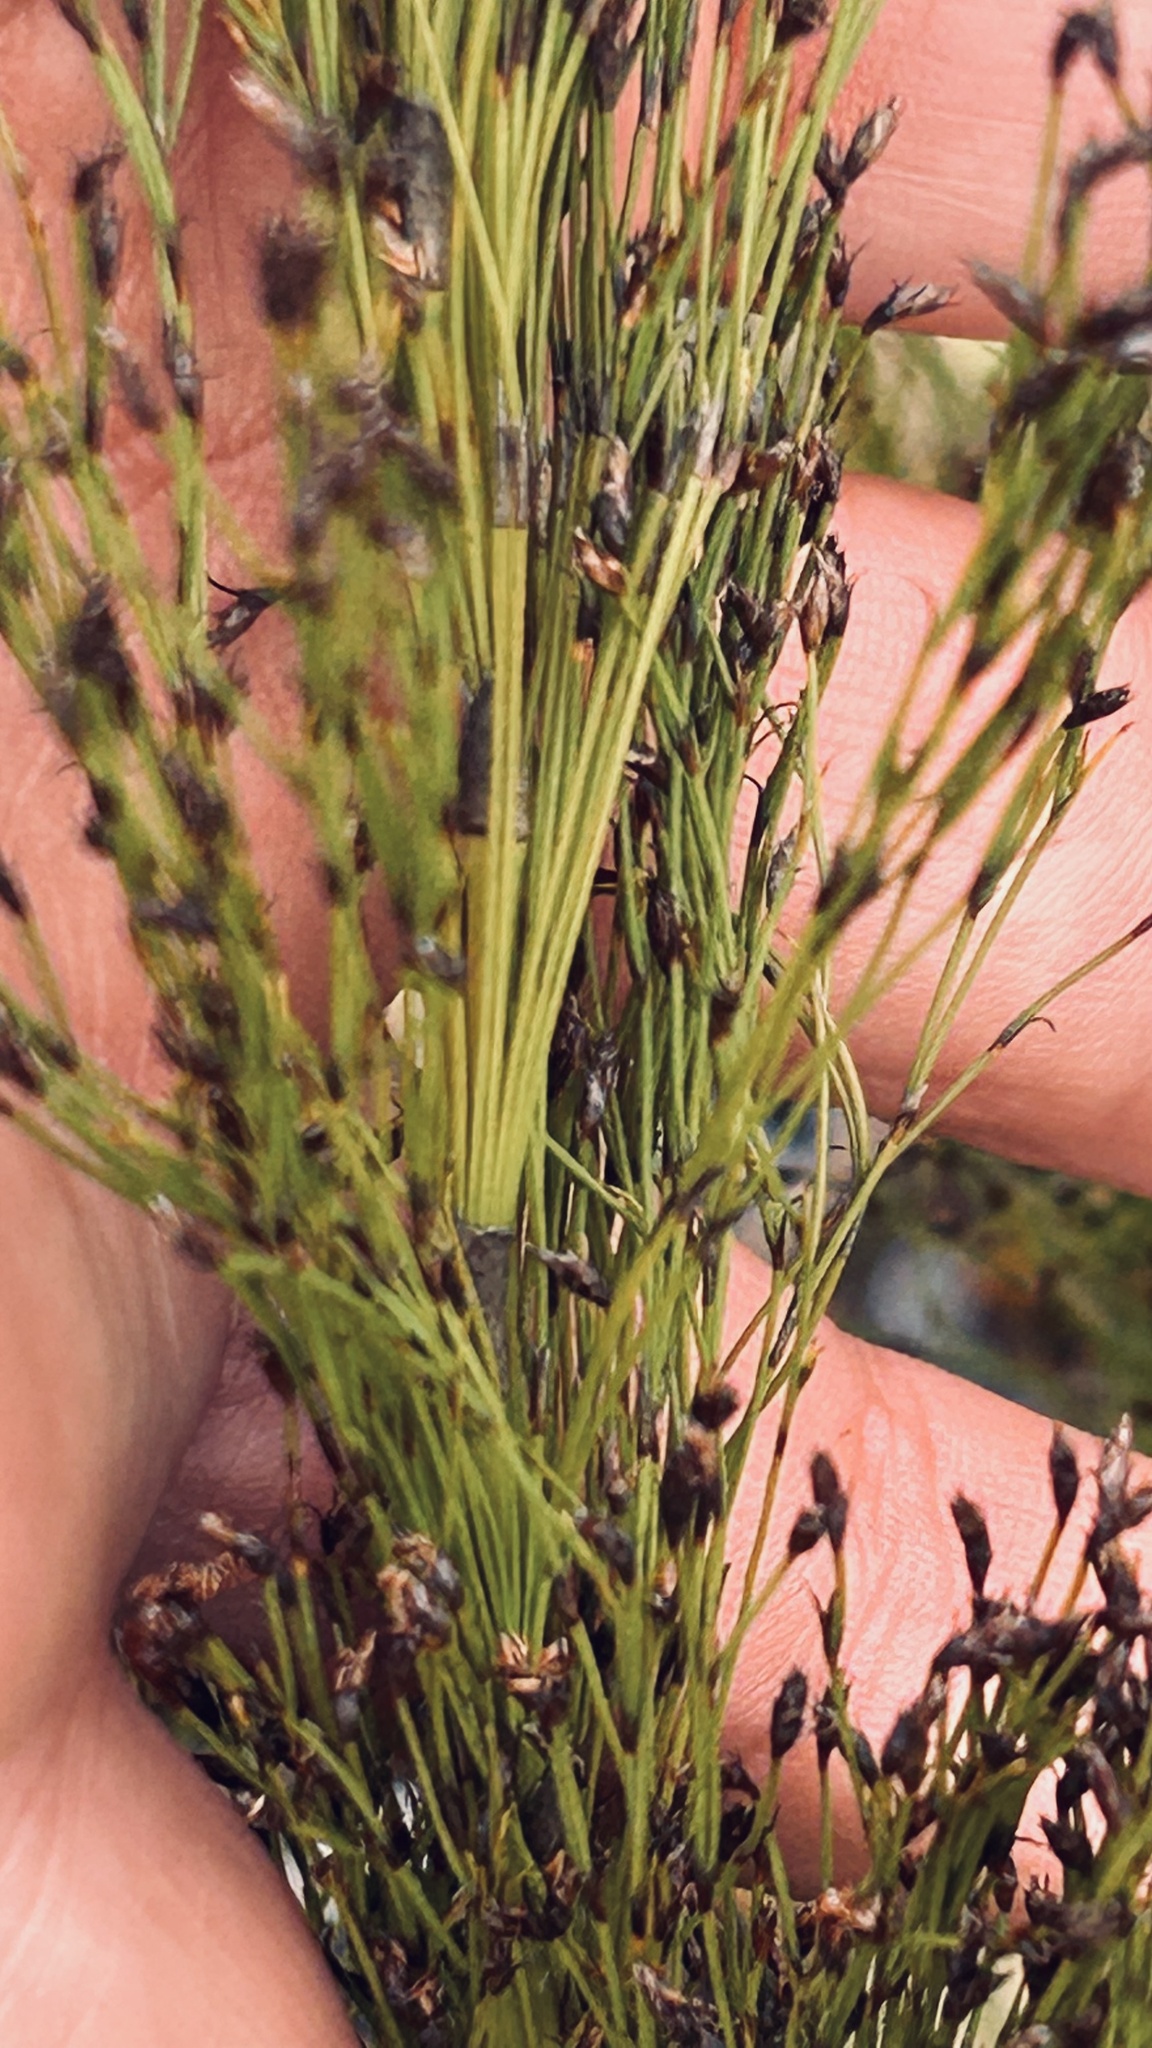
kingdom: Plantae
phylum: Tracheophyta
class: Liliopsida
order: Poales
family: Restionaceae
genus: Restio
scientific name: Restio leptoclados
